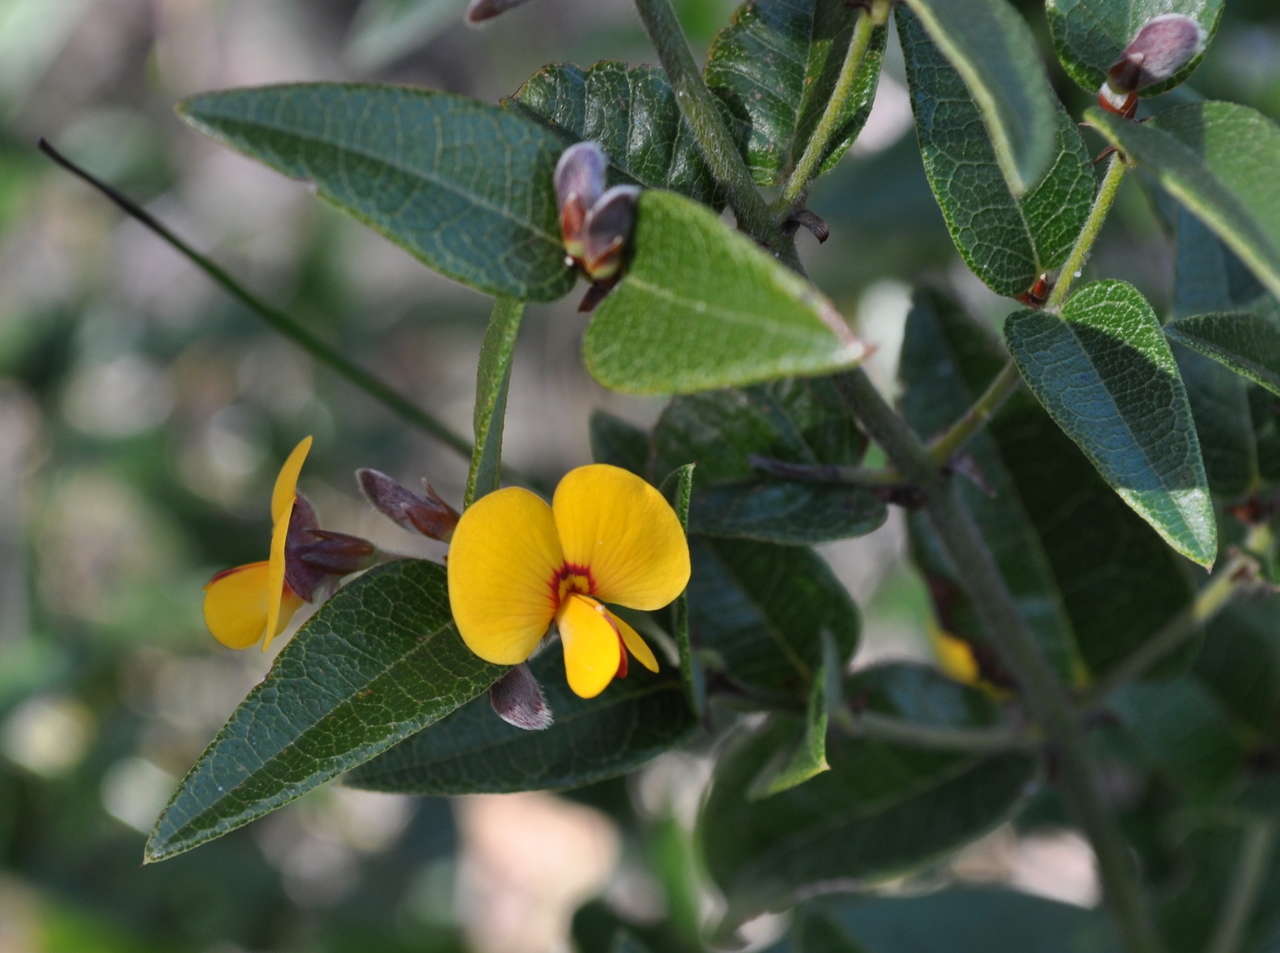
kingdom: Plantae
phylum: Tracheophyta
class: Magnoliopsida
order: Fabales
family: Fabaceae
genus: Platylobium
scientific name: Platylobium parviflorum
